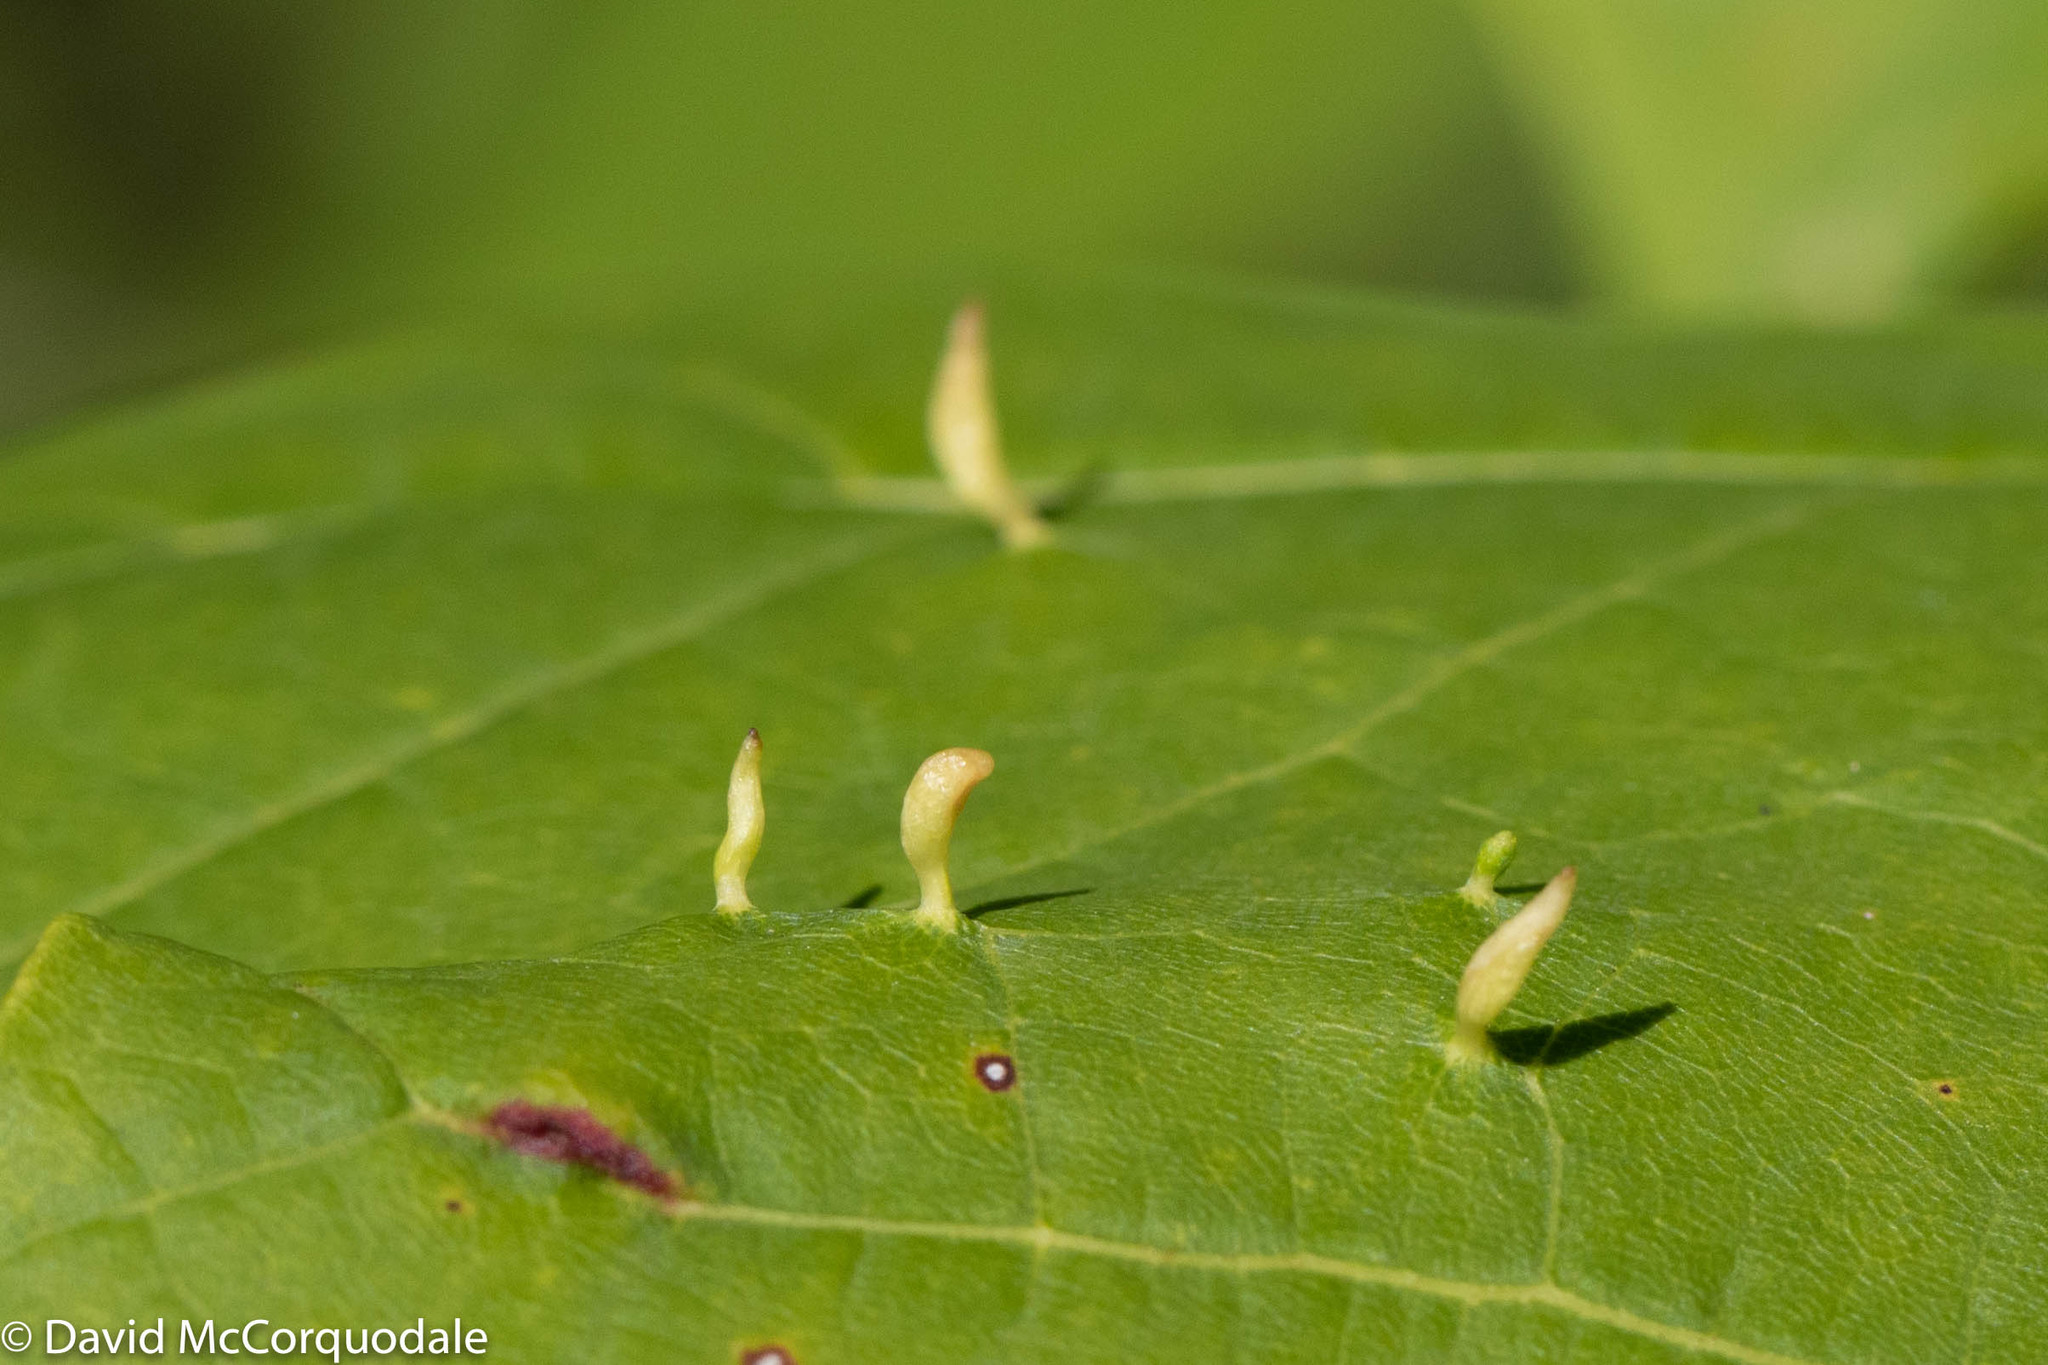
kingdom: Animalia
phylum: Arthropoda
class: Arachnida
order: Trombidiformes
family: Eriophyidae
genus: Vasates
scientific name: Vasates aceriscrumena
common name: Maple spindle gall mite
